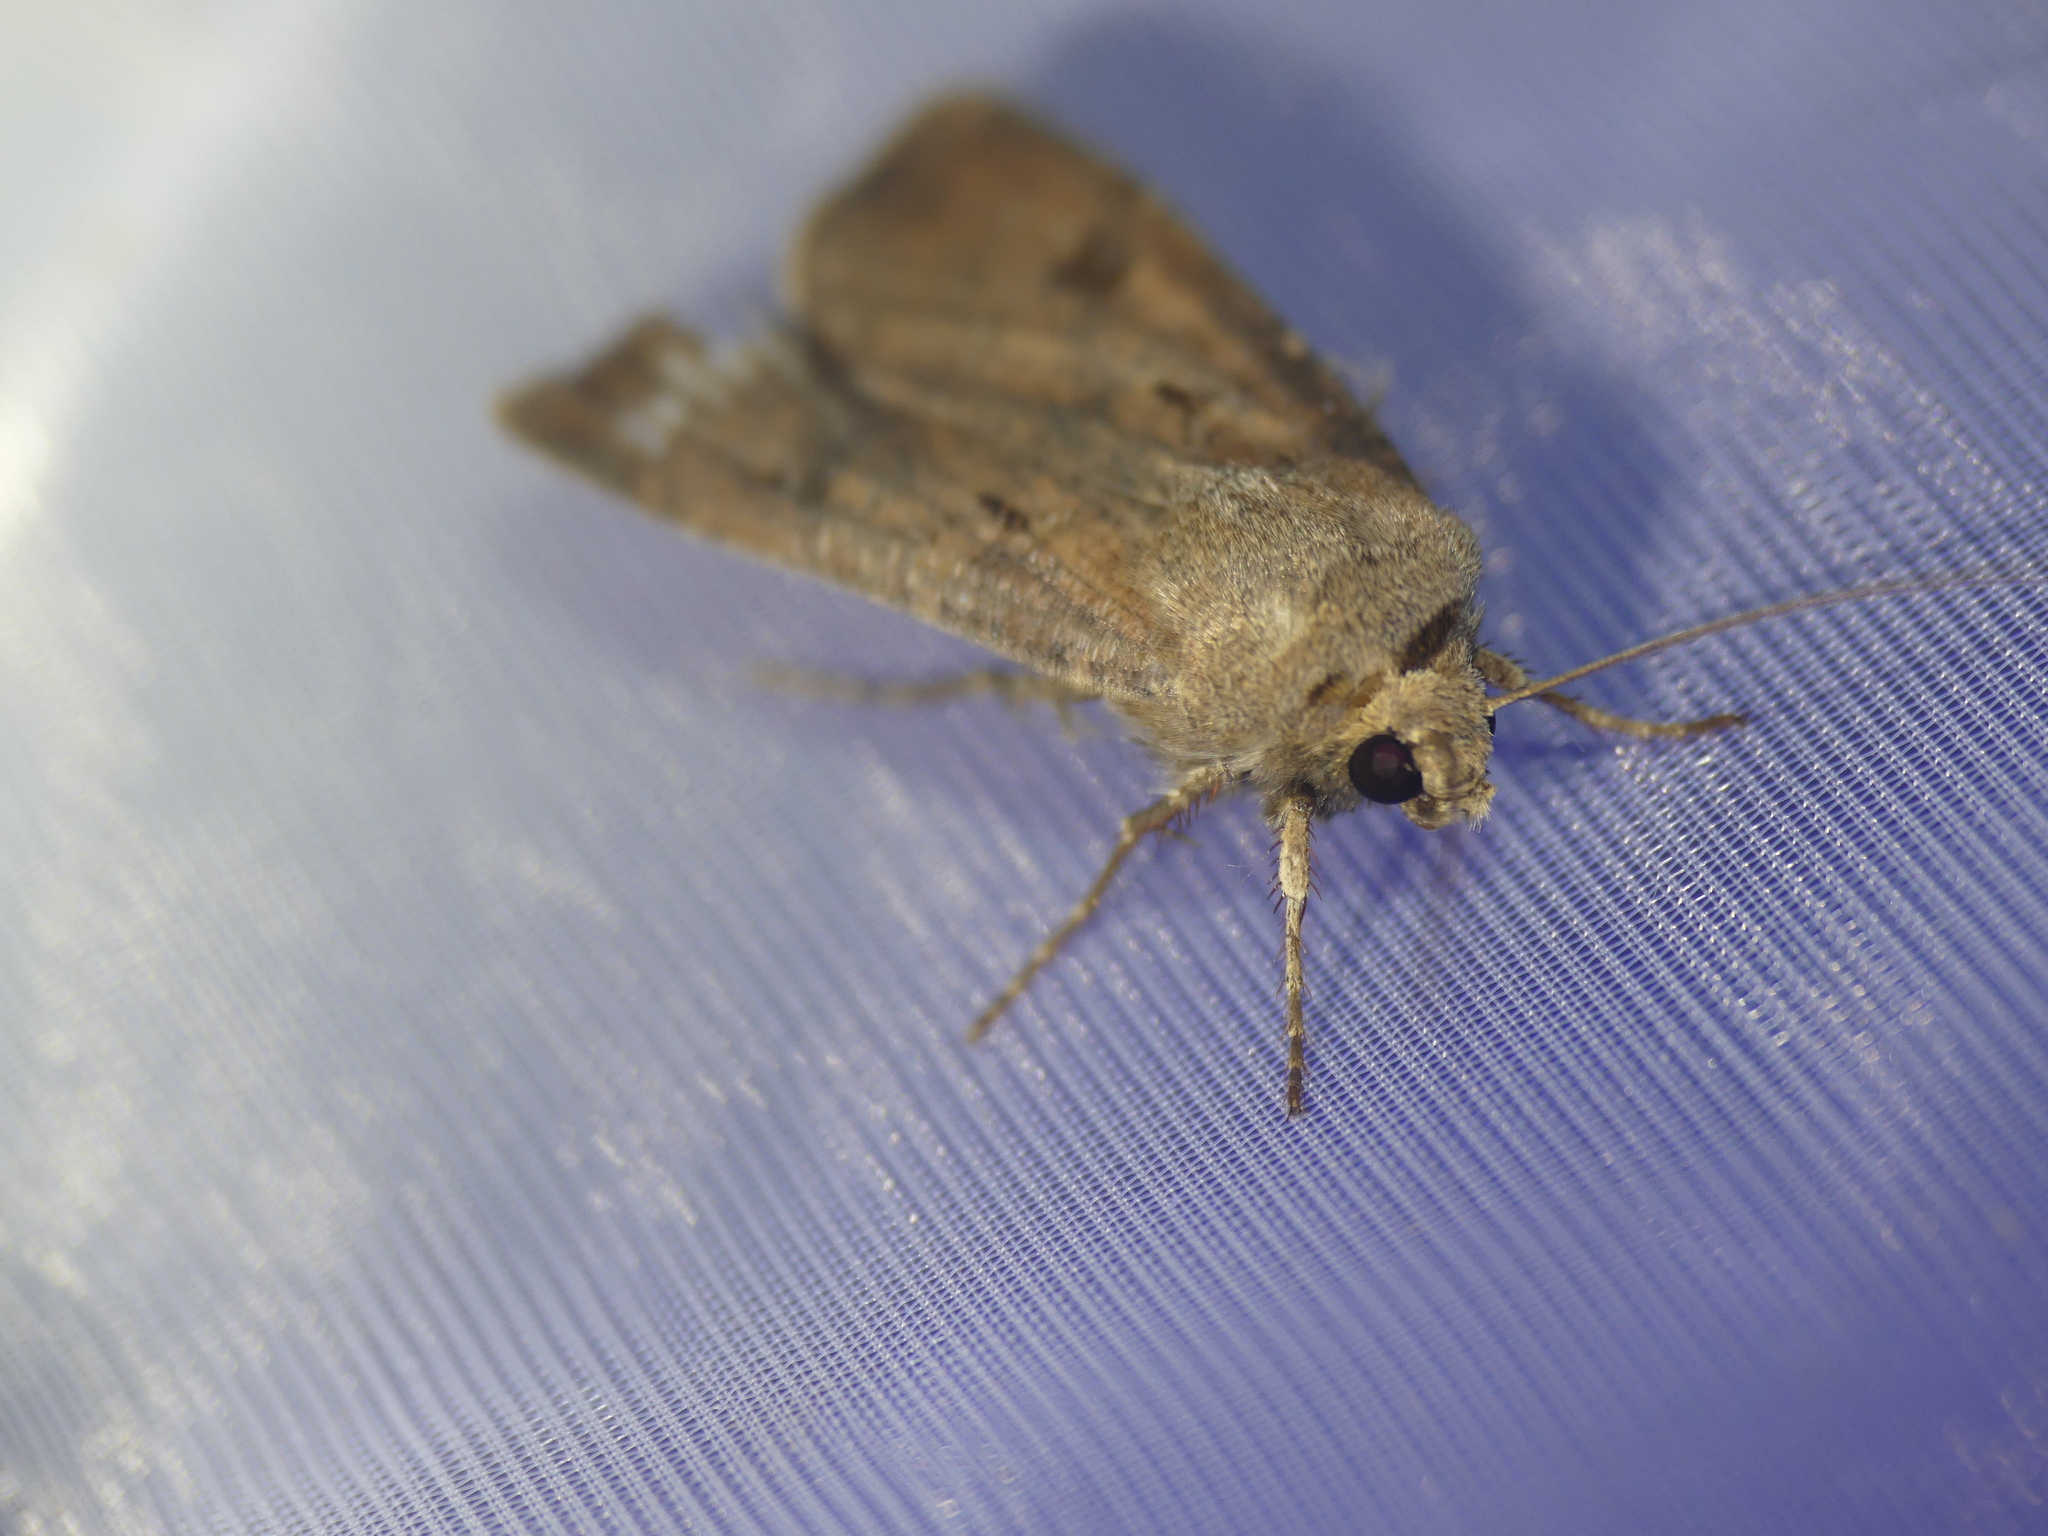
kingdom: Animalia
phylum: Arthropoda
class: Insecta
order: Lepidoptera
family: Noctuidae
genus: Agrotis
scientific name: Agrotis exclamationis
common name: Heart and dart
